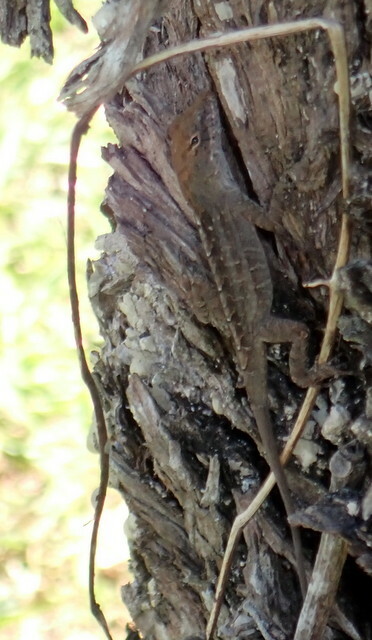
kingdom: Animalia
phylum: Chordata
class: Squamata
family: Dactyloidae
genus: Anolis
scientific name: Anolis sagrei
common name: Brown anole
